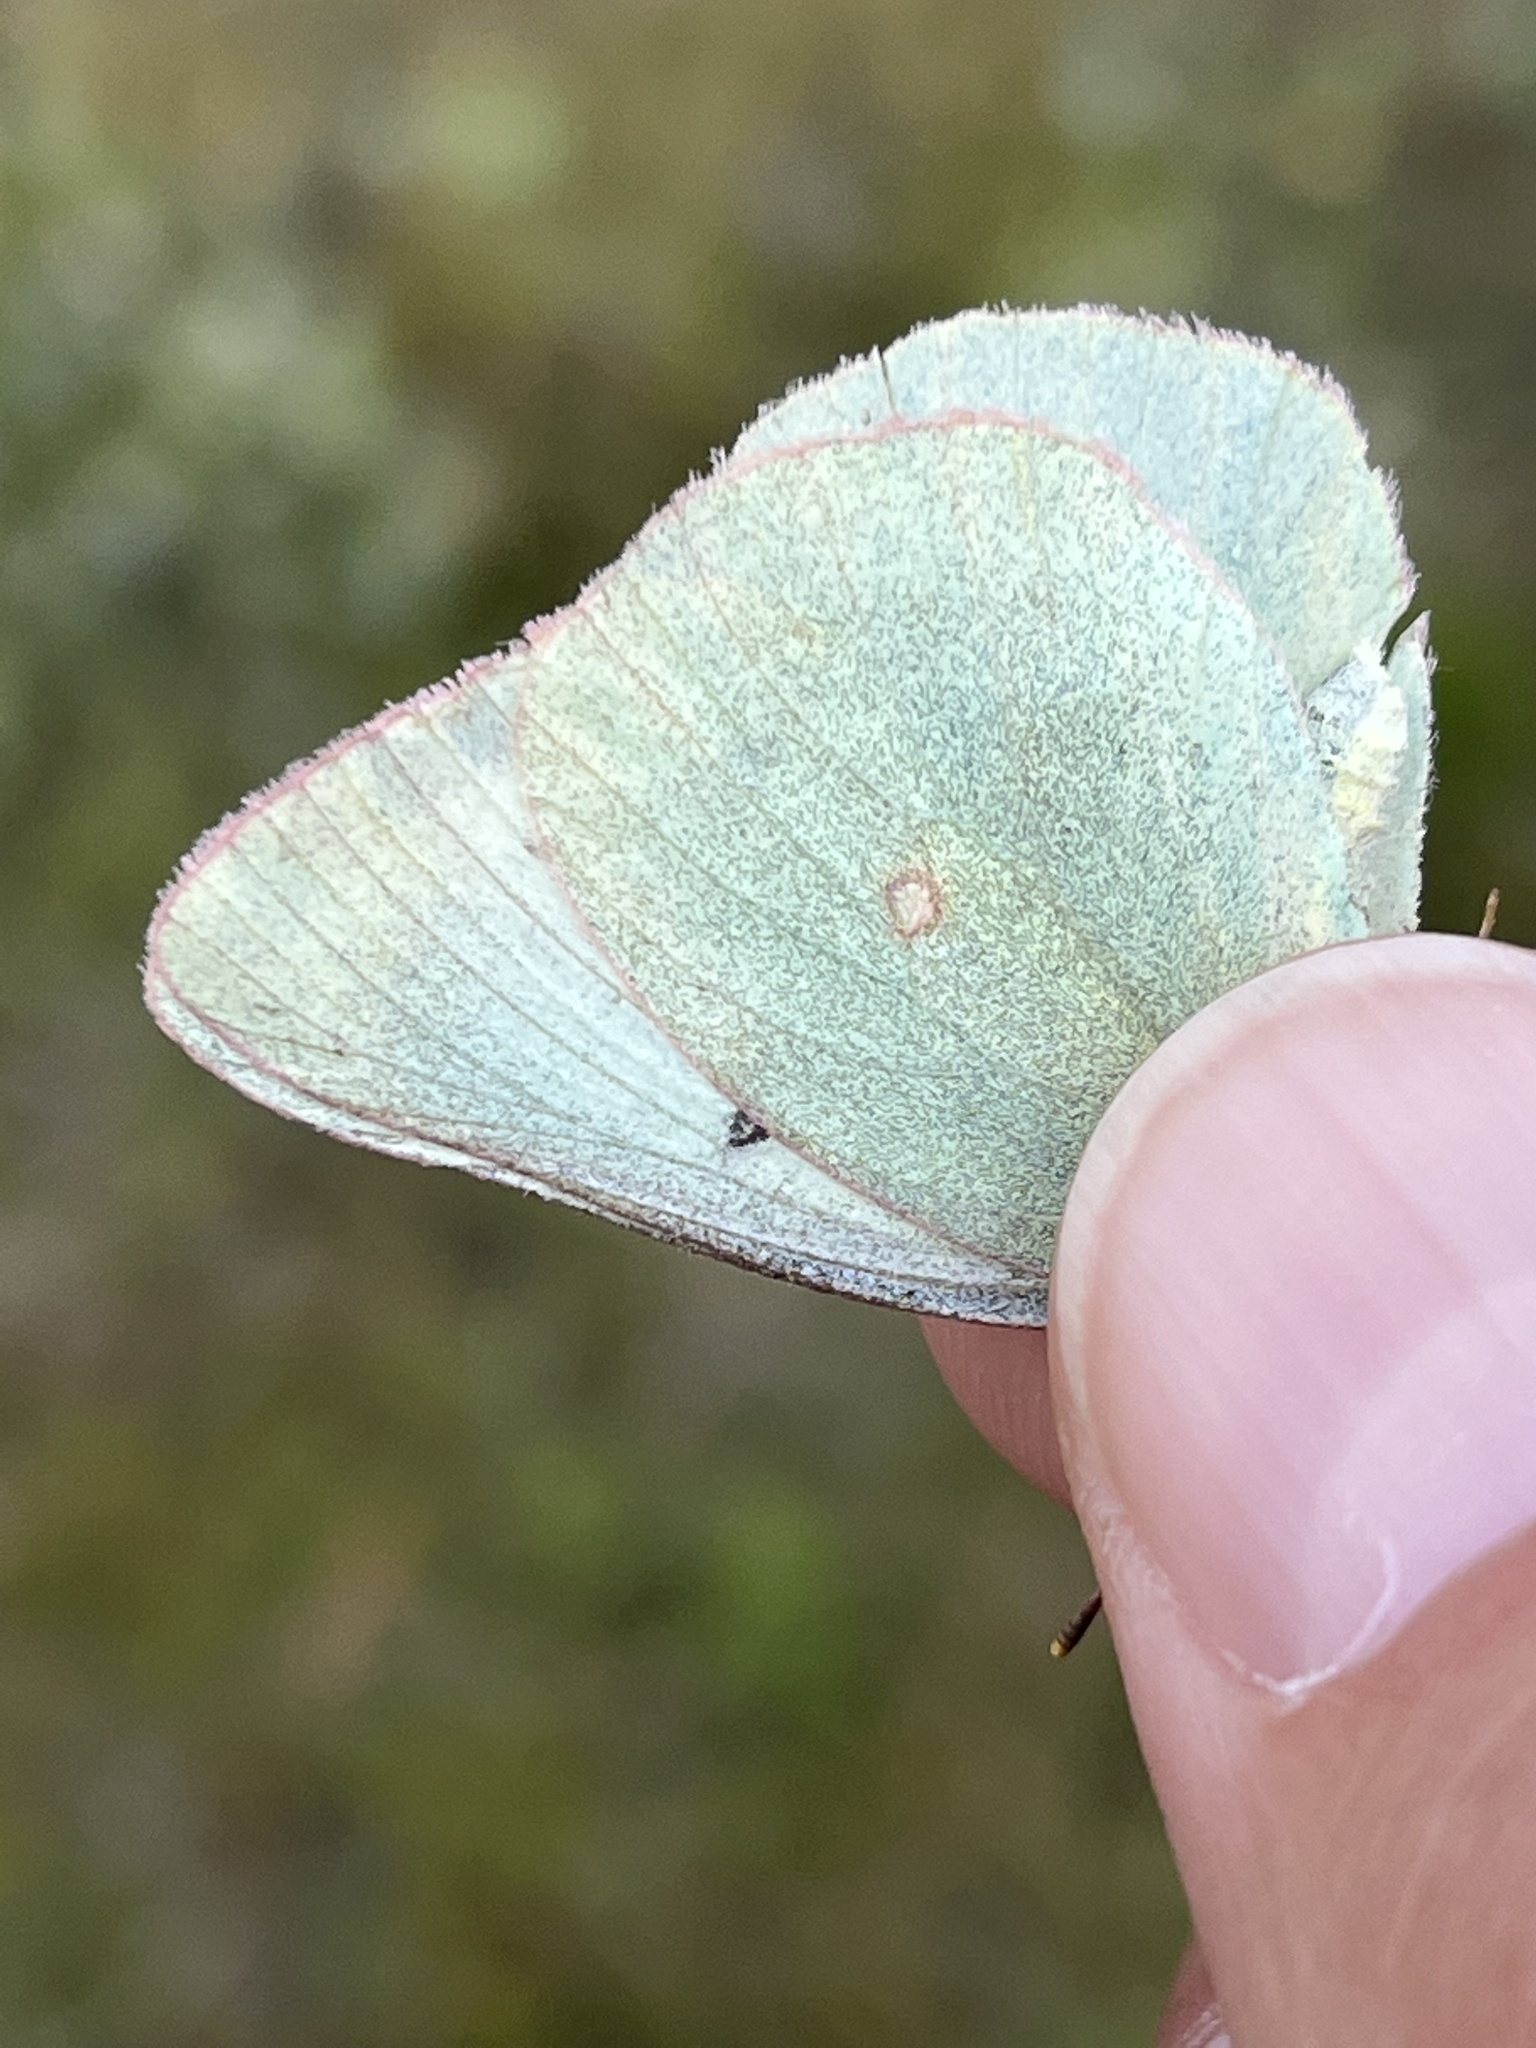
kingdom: Animalia
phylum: Arthropoda
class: Insecta
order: Lepidoptera
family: Pieridae
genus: Colias
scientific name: Colias christina
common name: Christina sulphur
